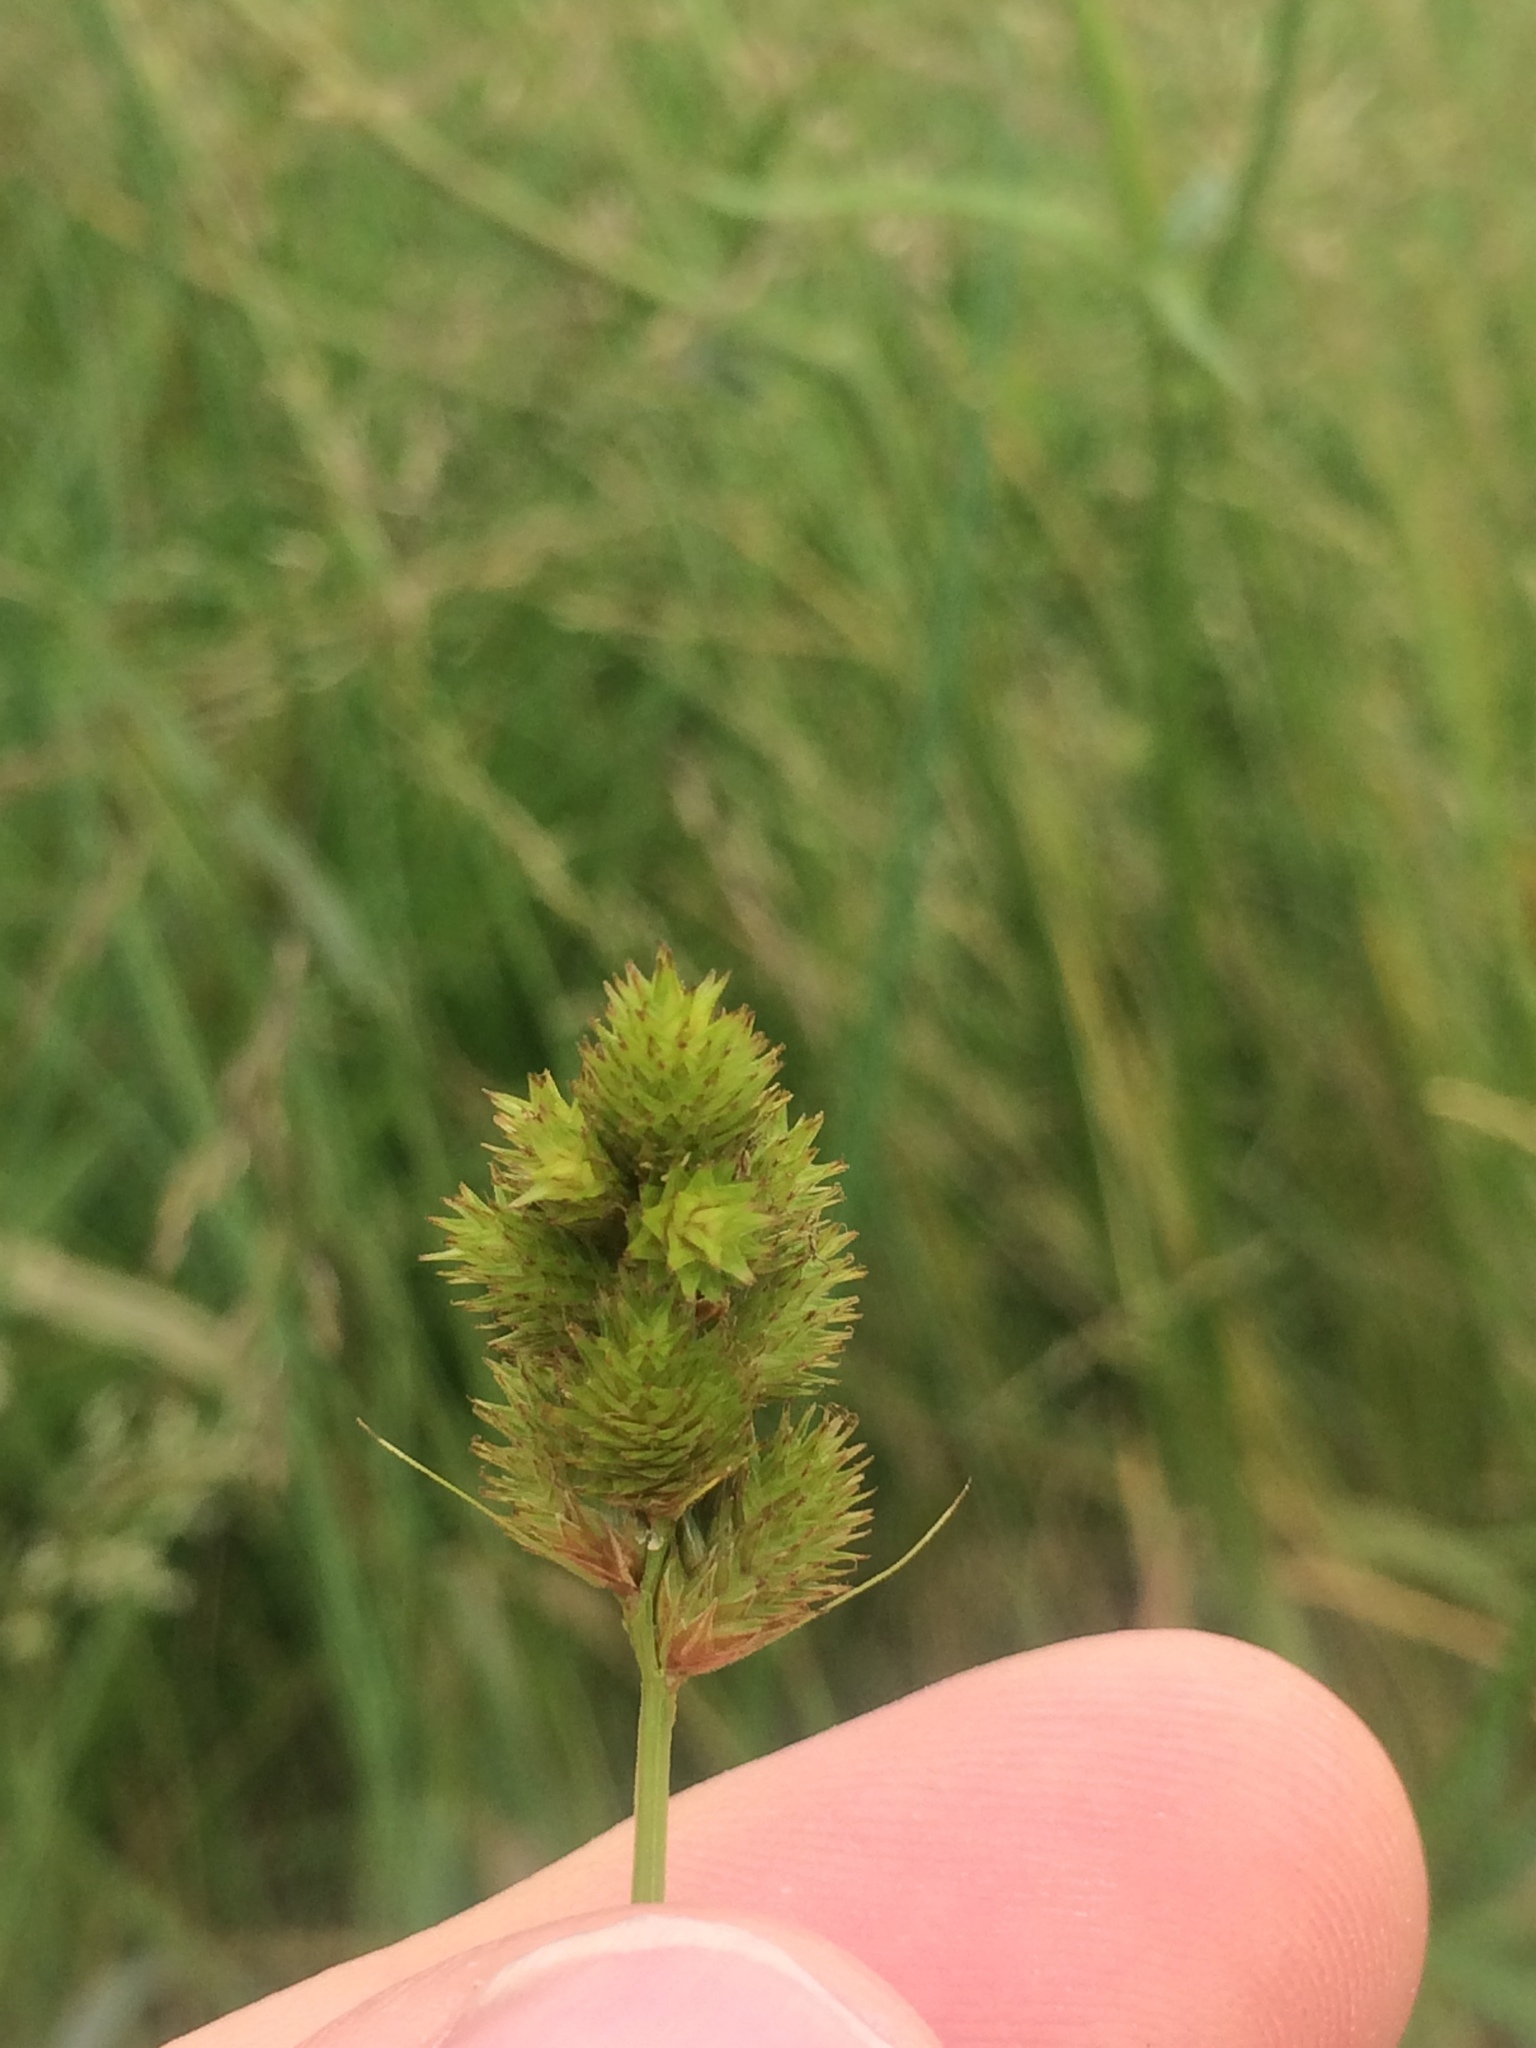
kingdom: Plantae
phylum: Tracheophyta
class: Liliopsida
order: Poales
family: Cyperaceae
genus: Carex
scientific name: Carex crawfordii
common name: Crawford's sedge
